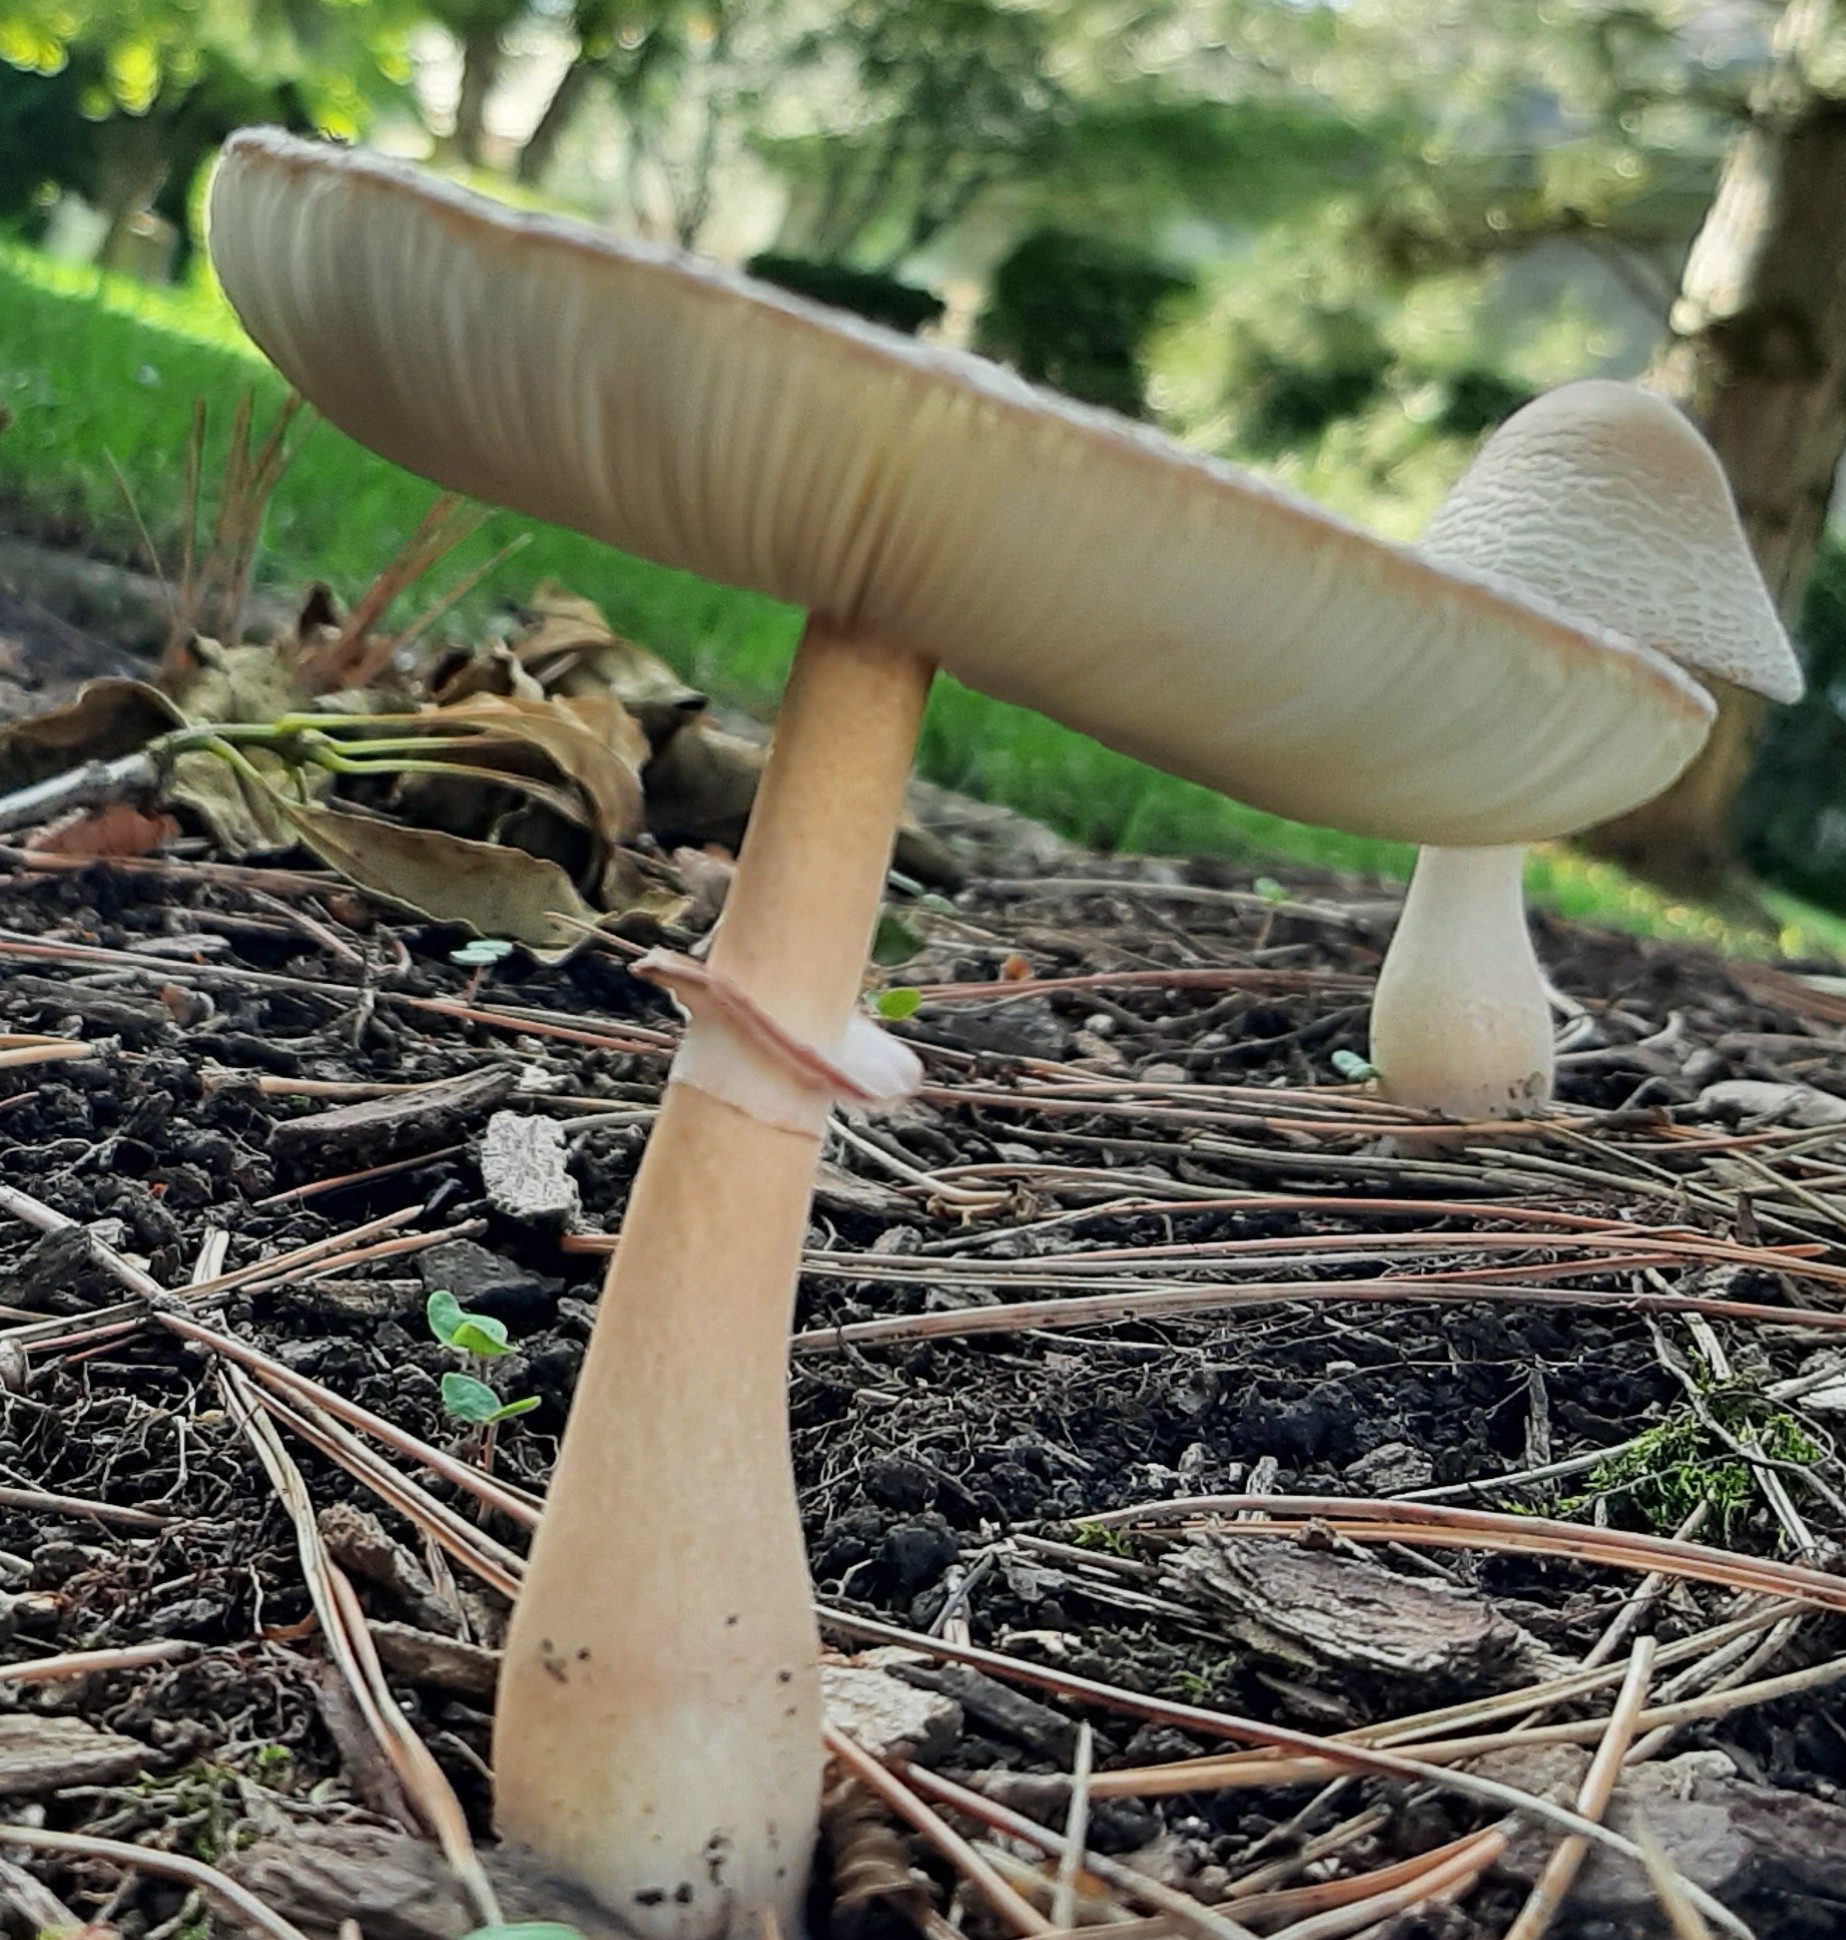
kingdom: Fungi
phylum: Basidiomycota
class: Agaricomycetes
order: Agaricales
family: Agaricaceae
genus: Leucoagaricus
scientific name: Leucoagaricus americanus
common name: Reddening lepiota
